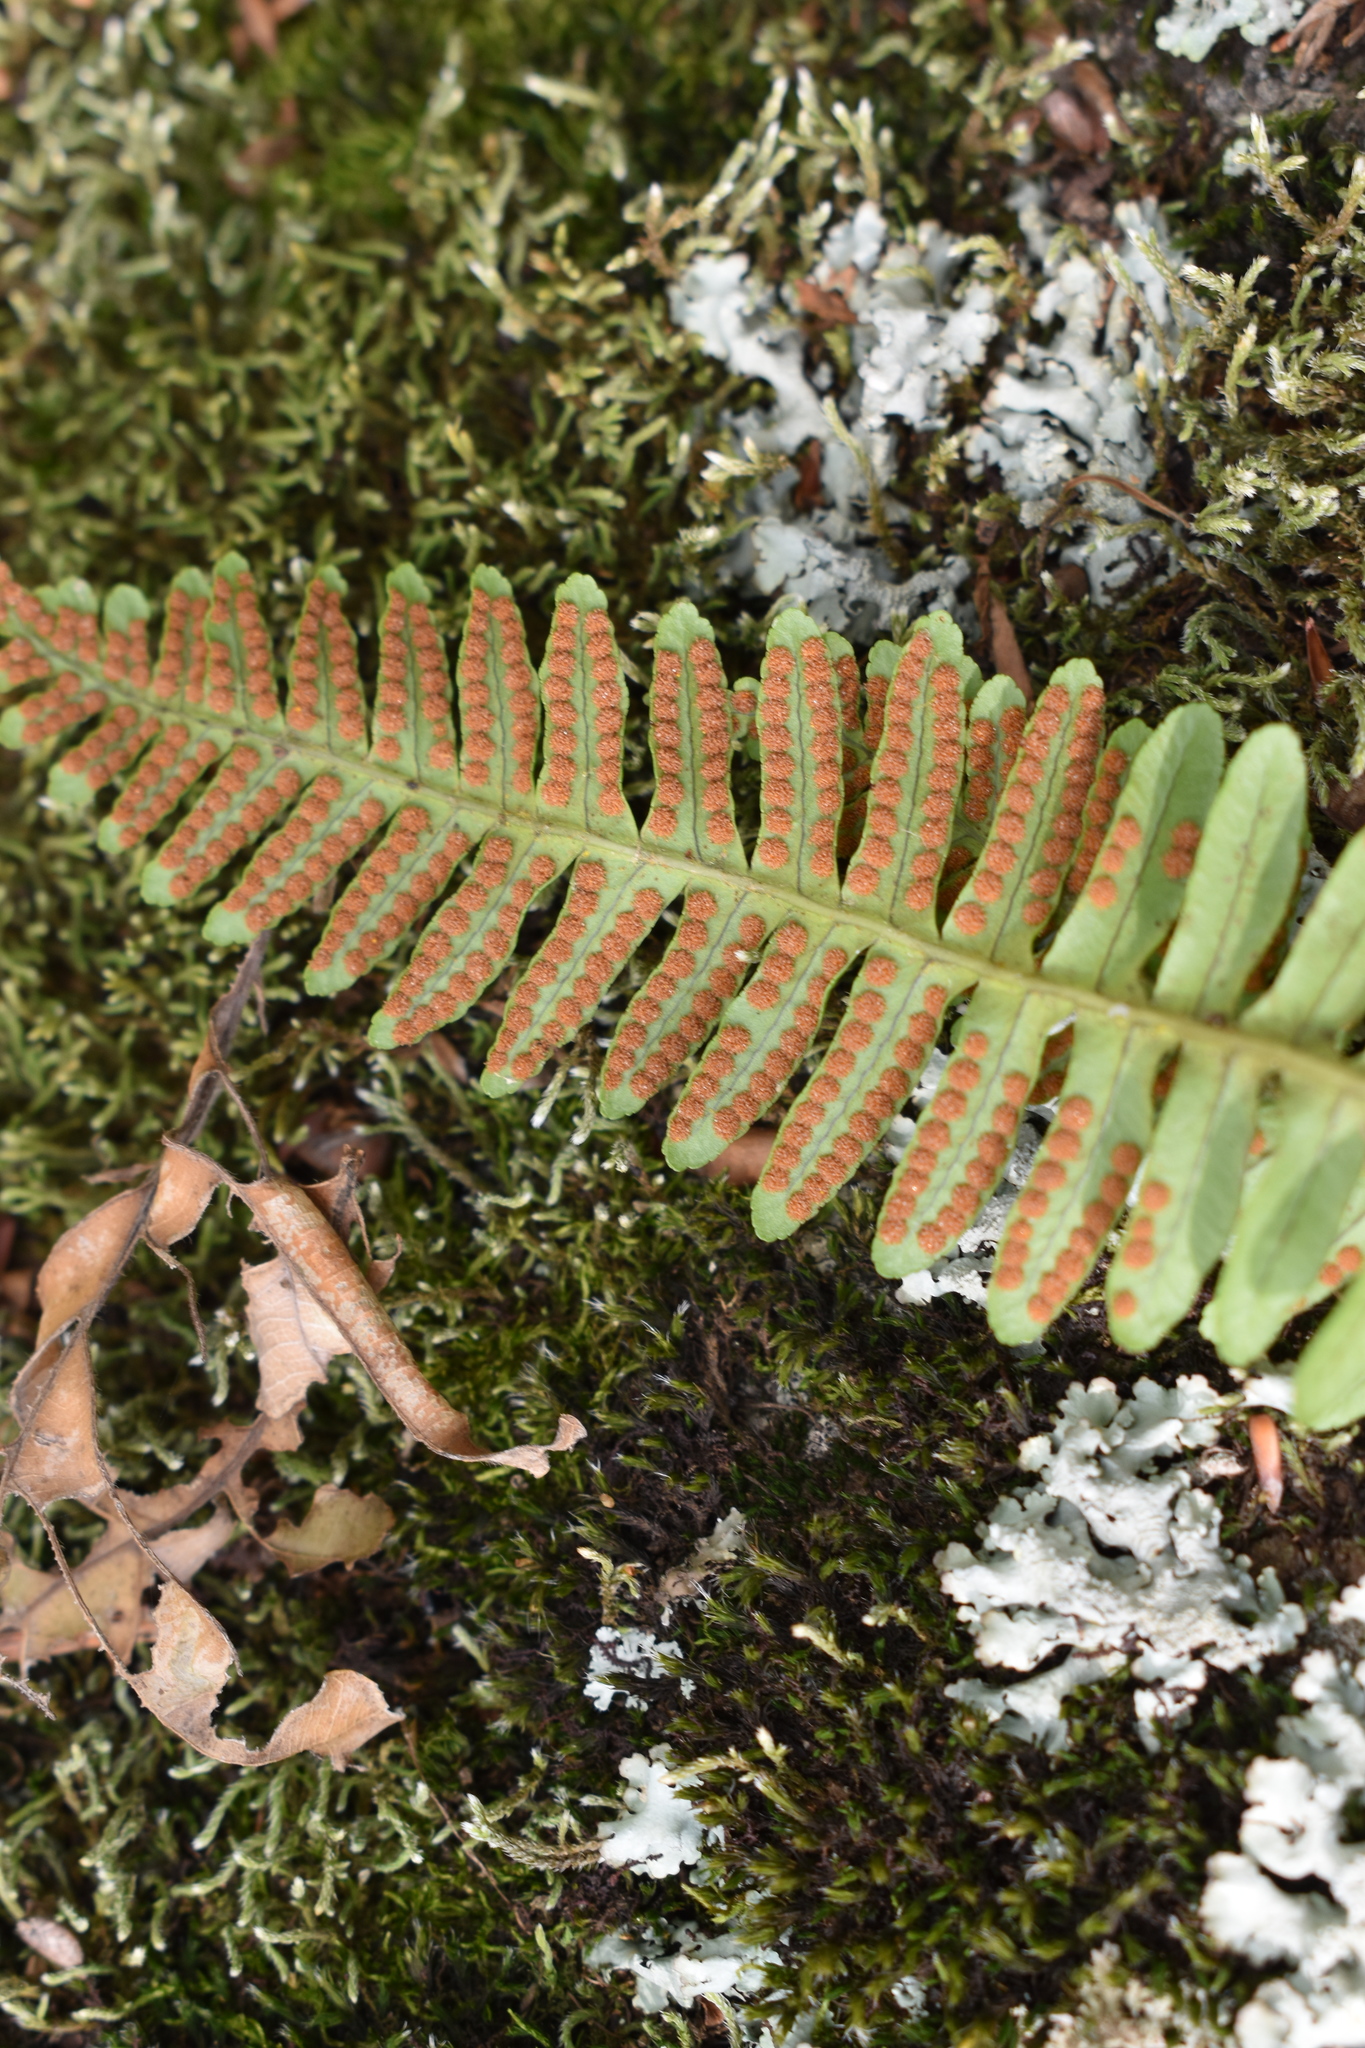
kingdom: Plantae
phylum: Tracheophyta
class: Polypodiopsida
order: Polypodiales
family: Polypodiaceae
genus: Polypodium
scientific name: Polypodium sibiricum
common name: Siberian polypody
